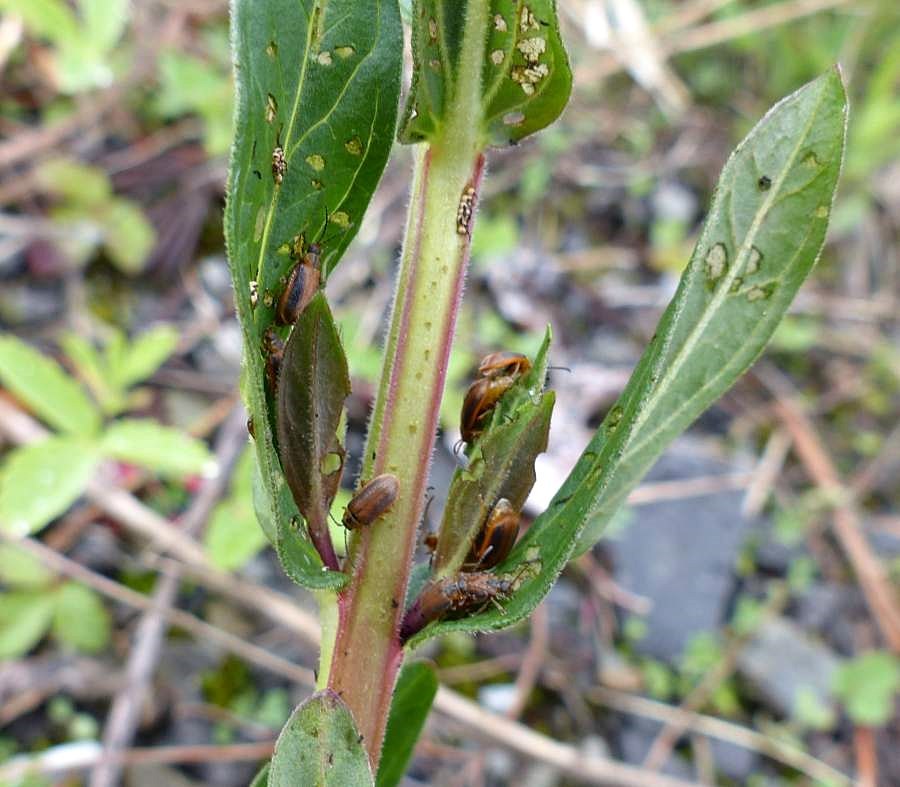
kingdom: Animalia
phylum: Arthropoda
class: Insecta
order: Coleoptera
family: Chrysomelidae
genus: Neogalerucella
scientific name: Neogalerucella calmariensis
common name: Black-margined loosestrife beetle
